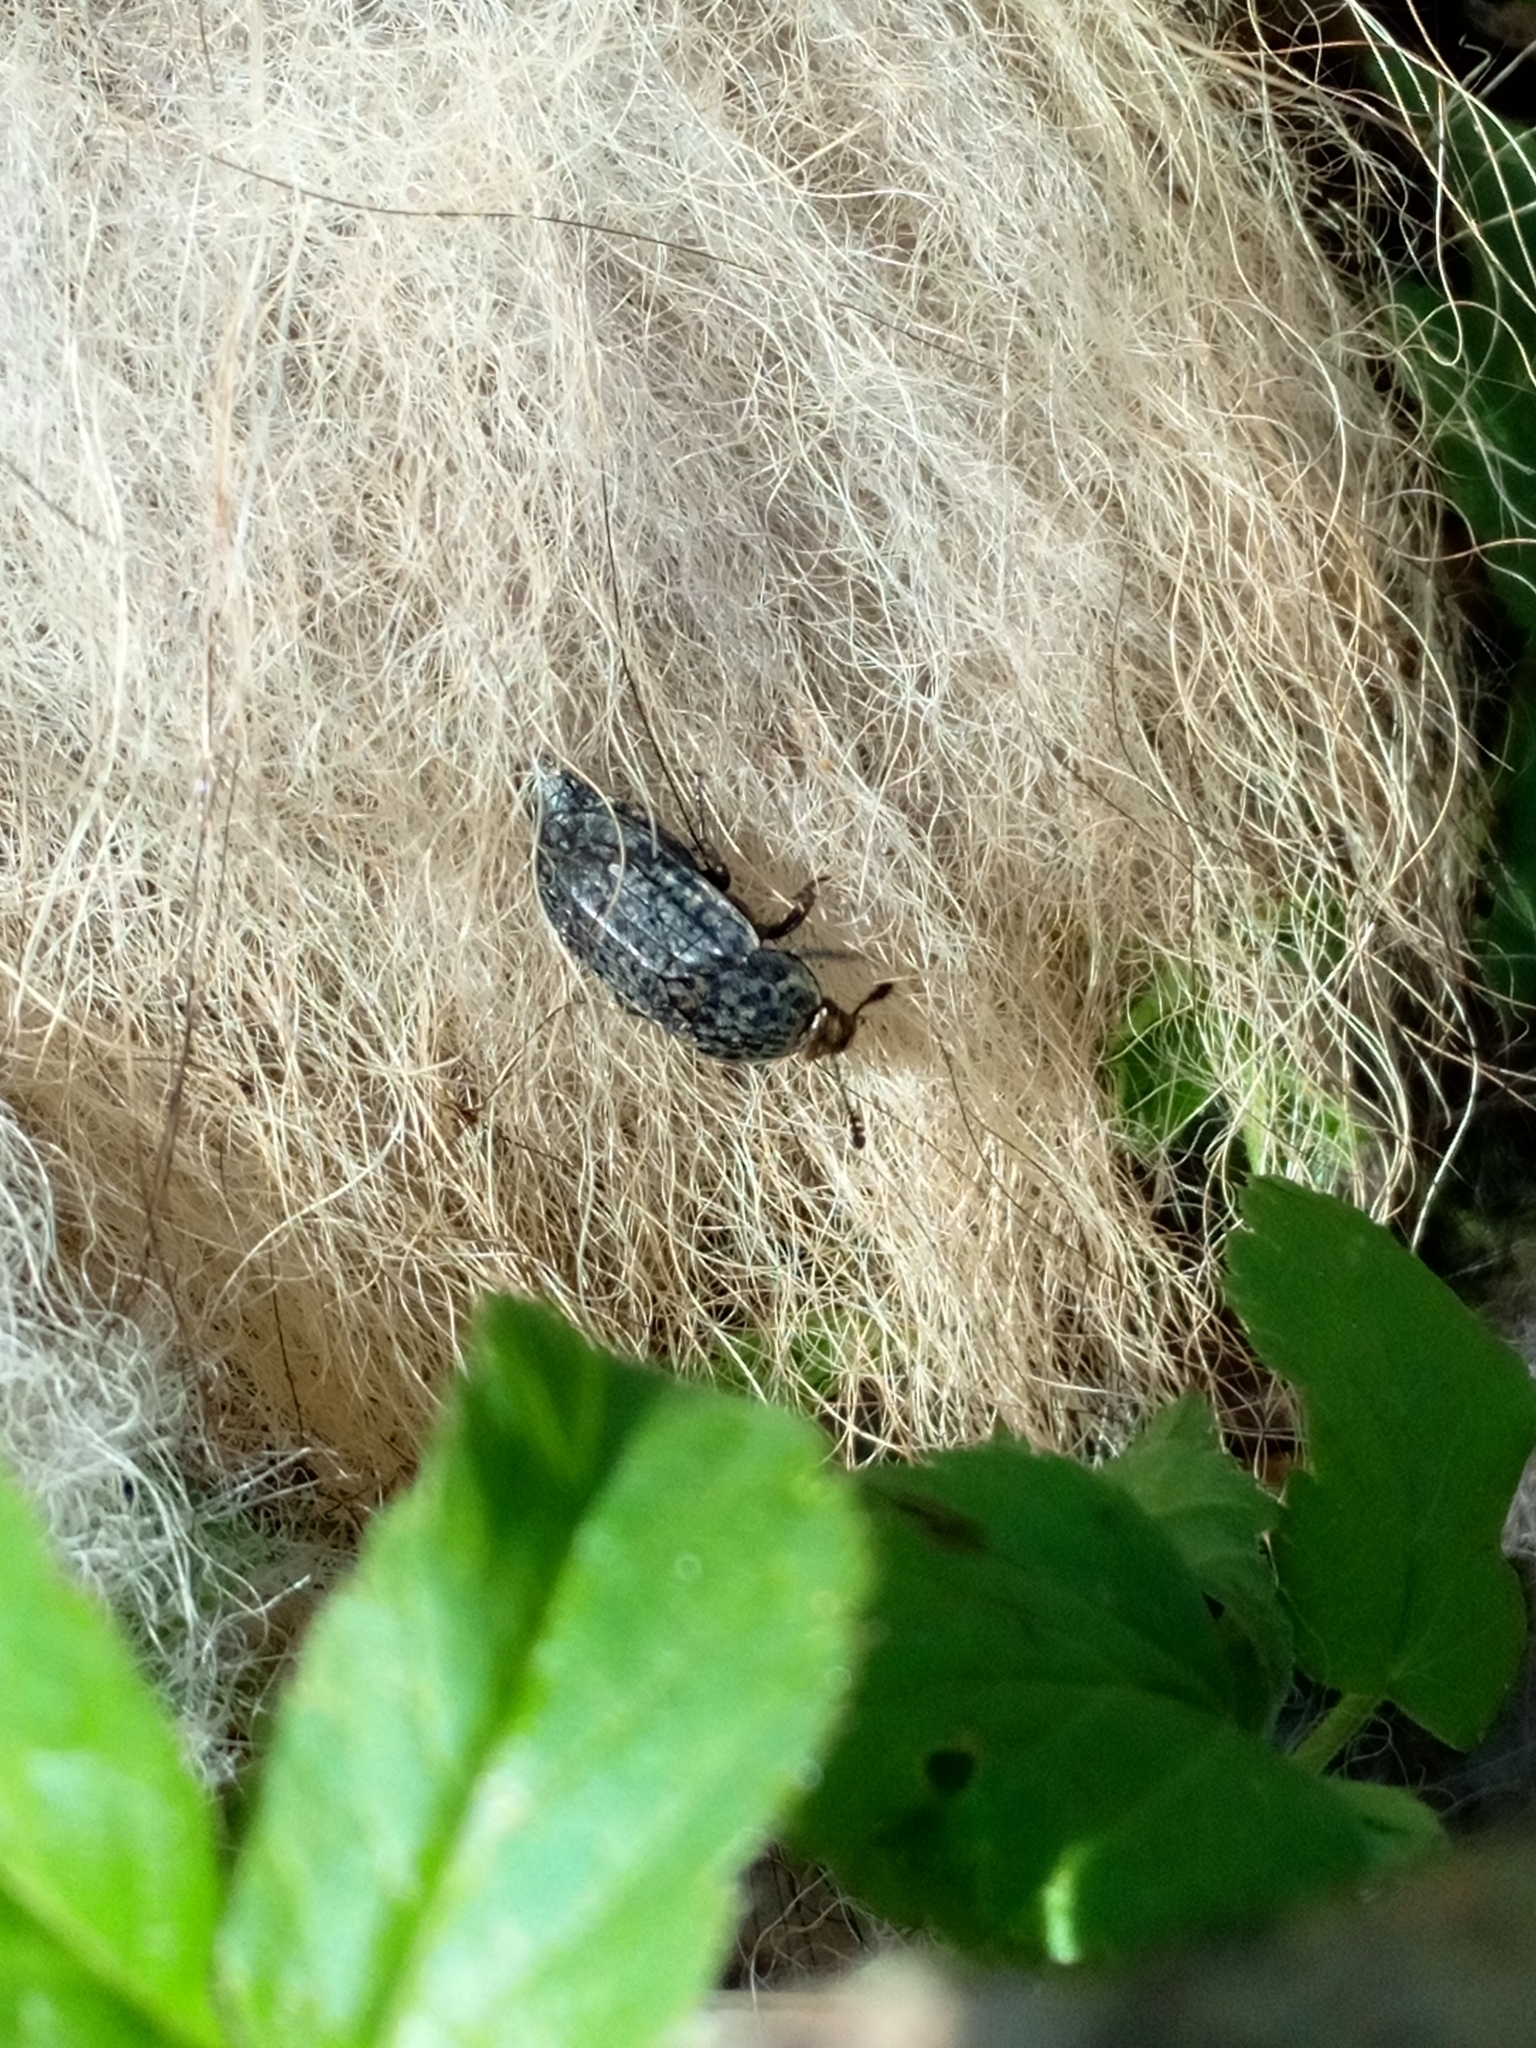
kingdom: Animalia
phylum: Arthropoda
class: Insecta
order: Coleoptera
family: Staphylinidae
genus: Thanatophilus
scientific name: Thanatophilus rugosus
